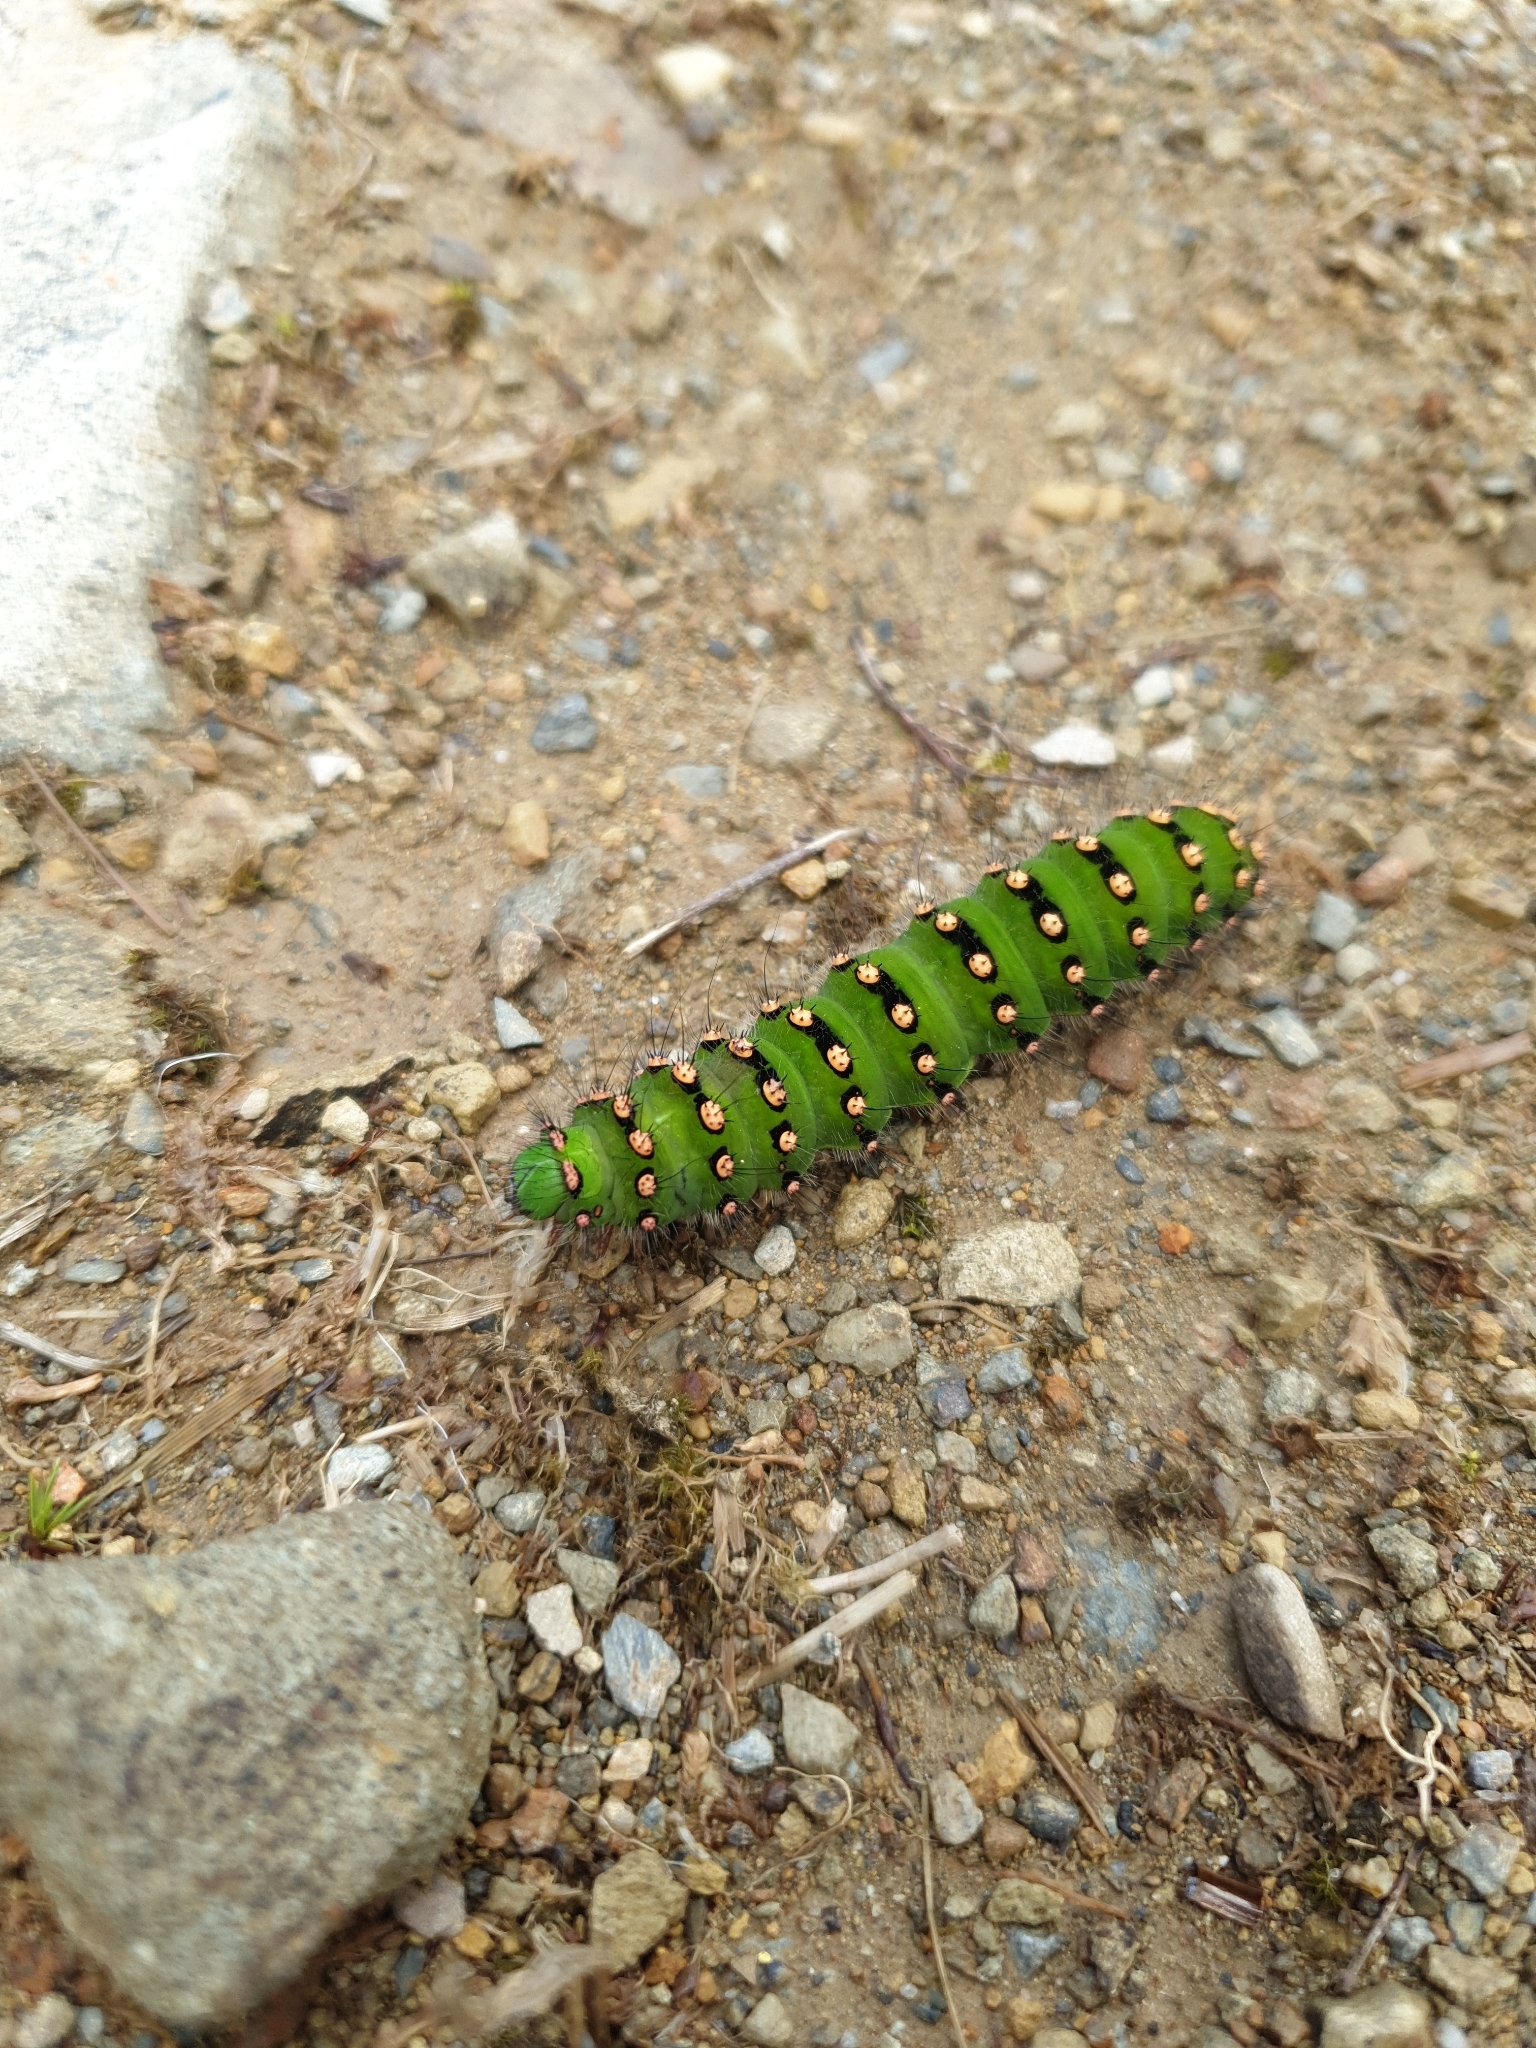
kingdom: Animalia
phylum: Arthropoda
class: Insecta
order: Lepidoptera
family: Saturniidae
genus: Saturnia
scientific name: Saturnia pavonia
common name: Emperor moth
